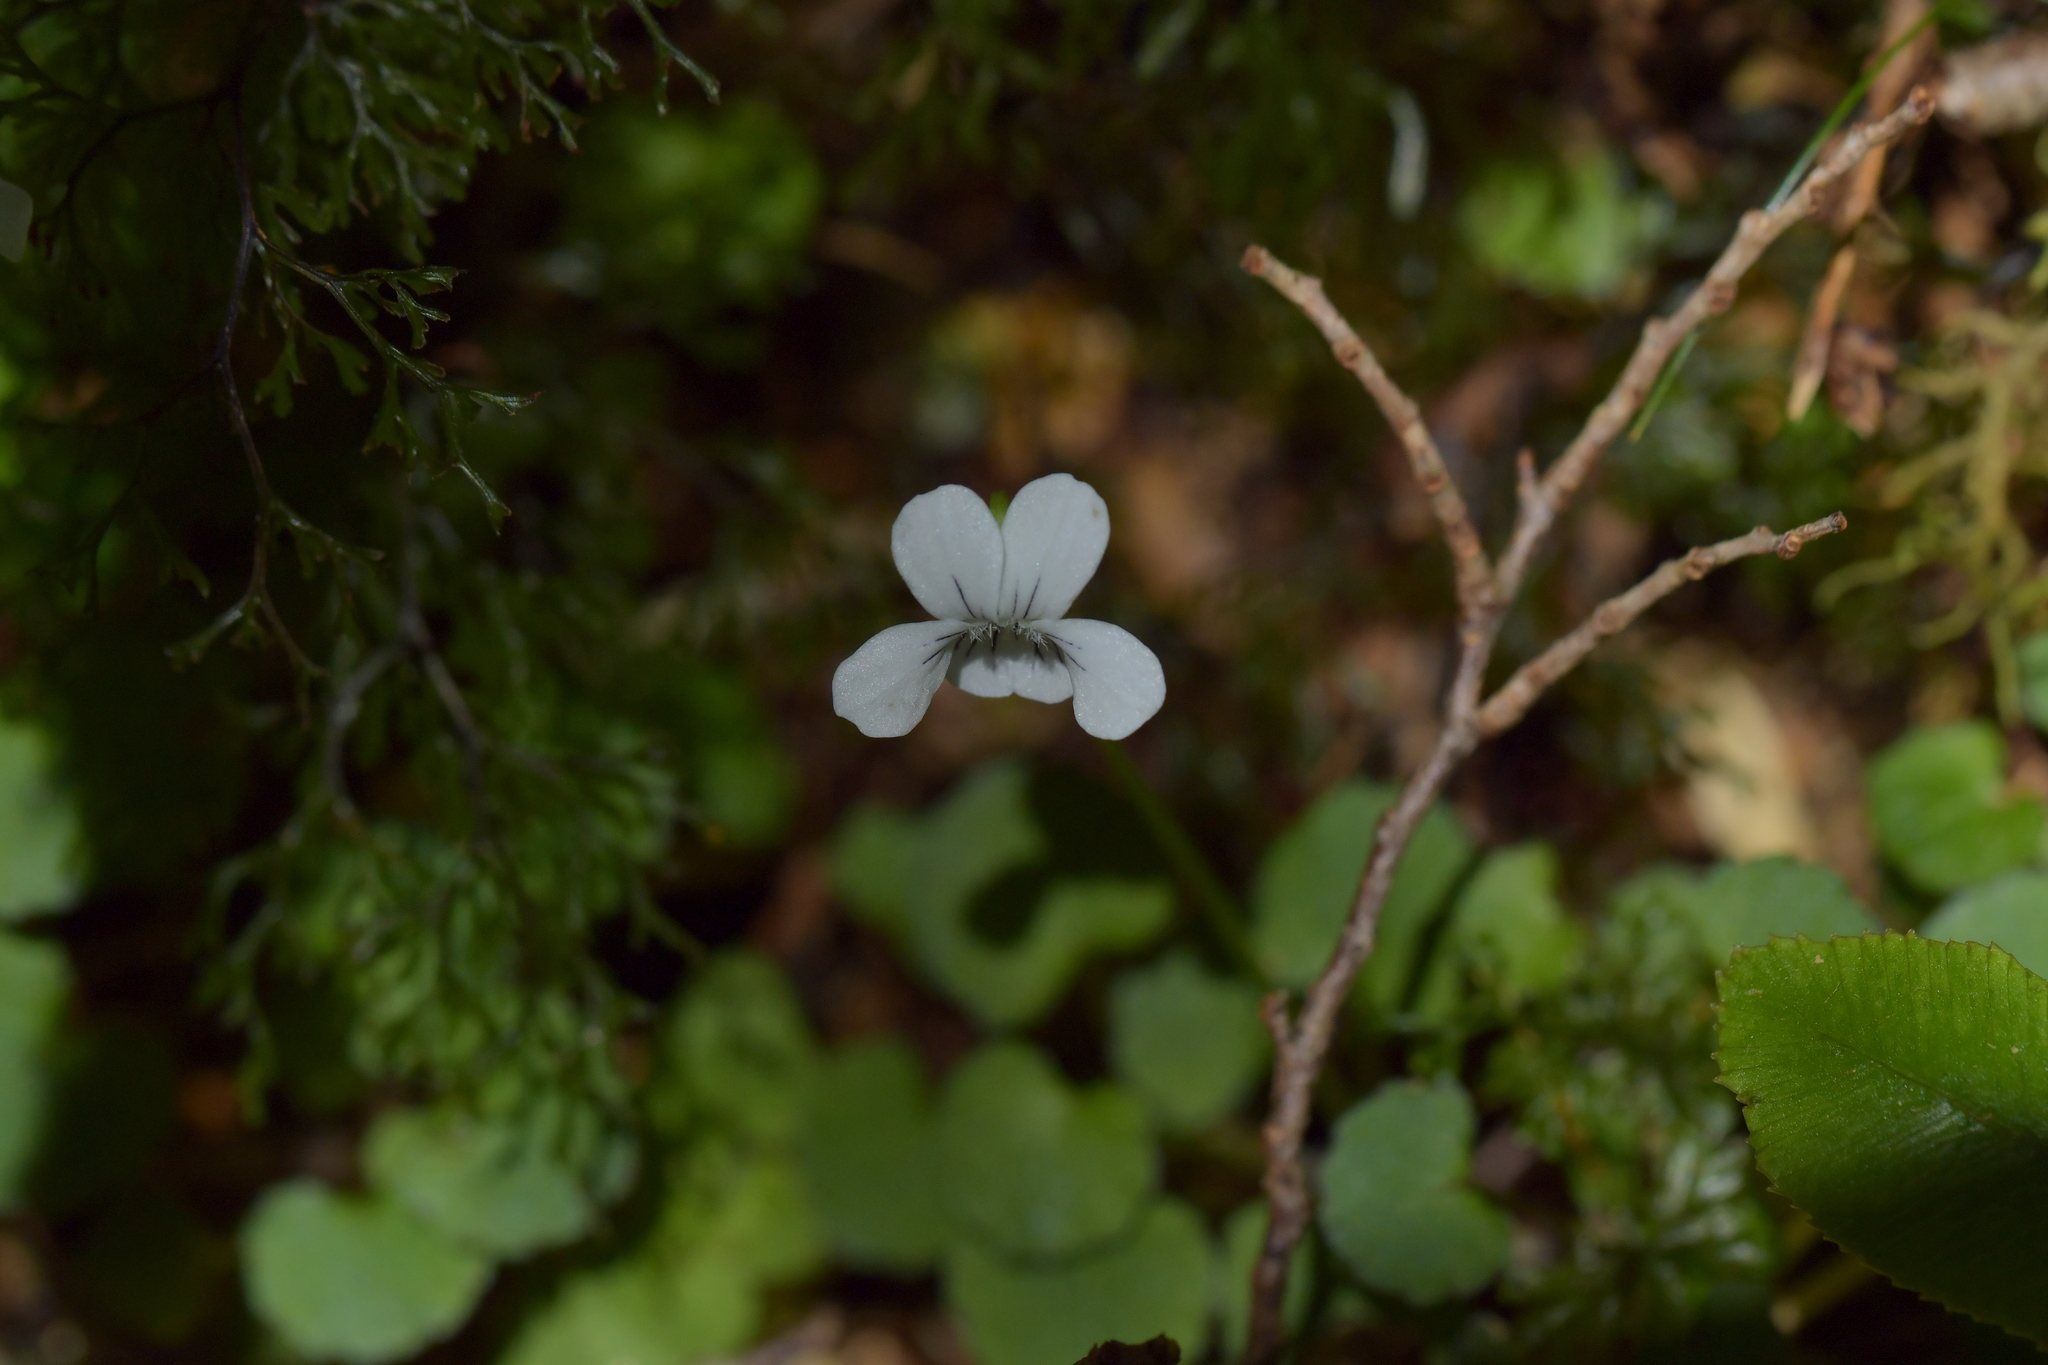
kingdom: Plantae
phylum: Tracheophyta
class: Magnoliopsida
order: Malpighiales
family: Violaceae
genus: Viola
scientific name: Viola filicaulis
